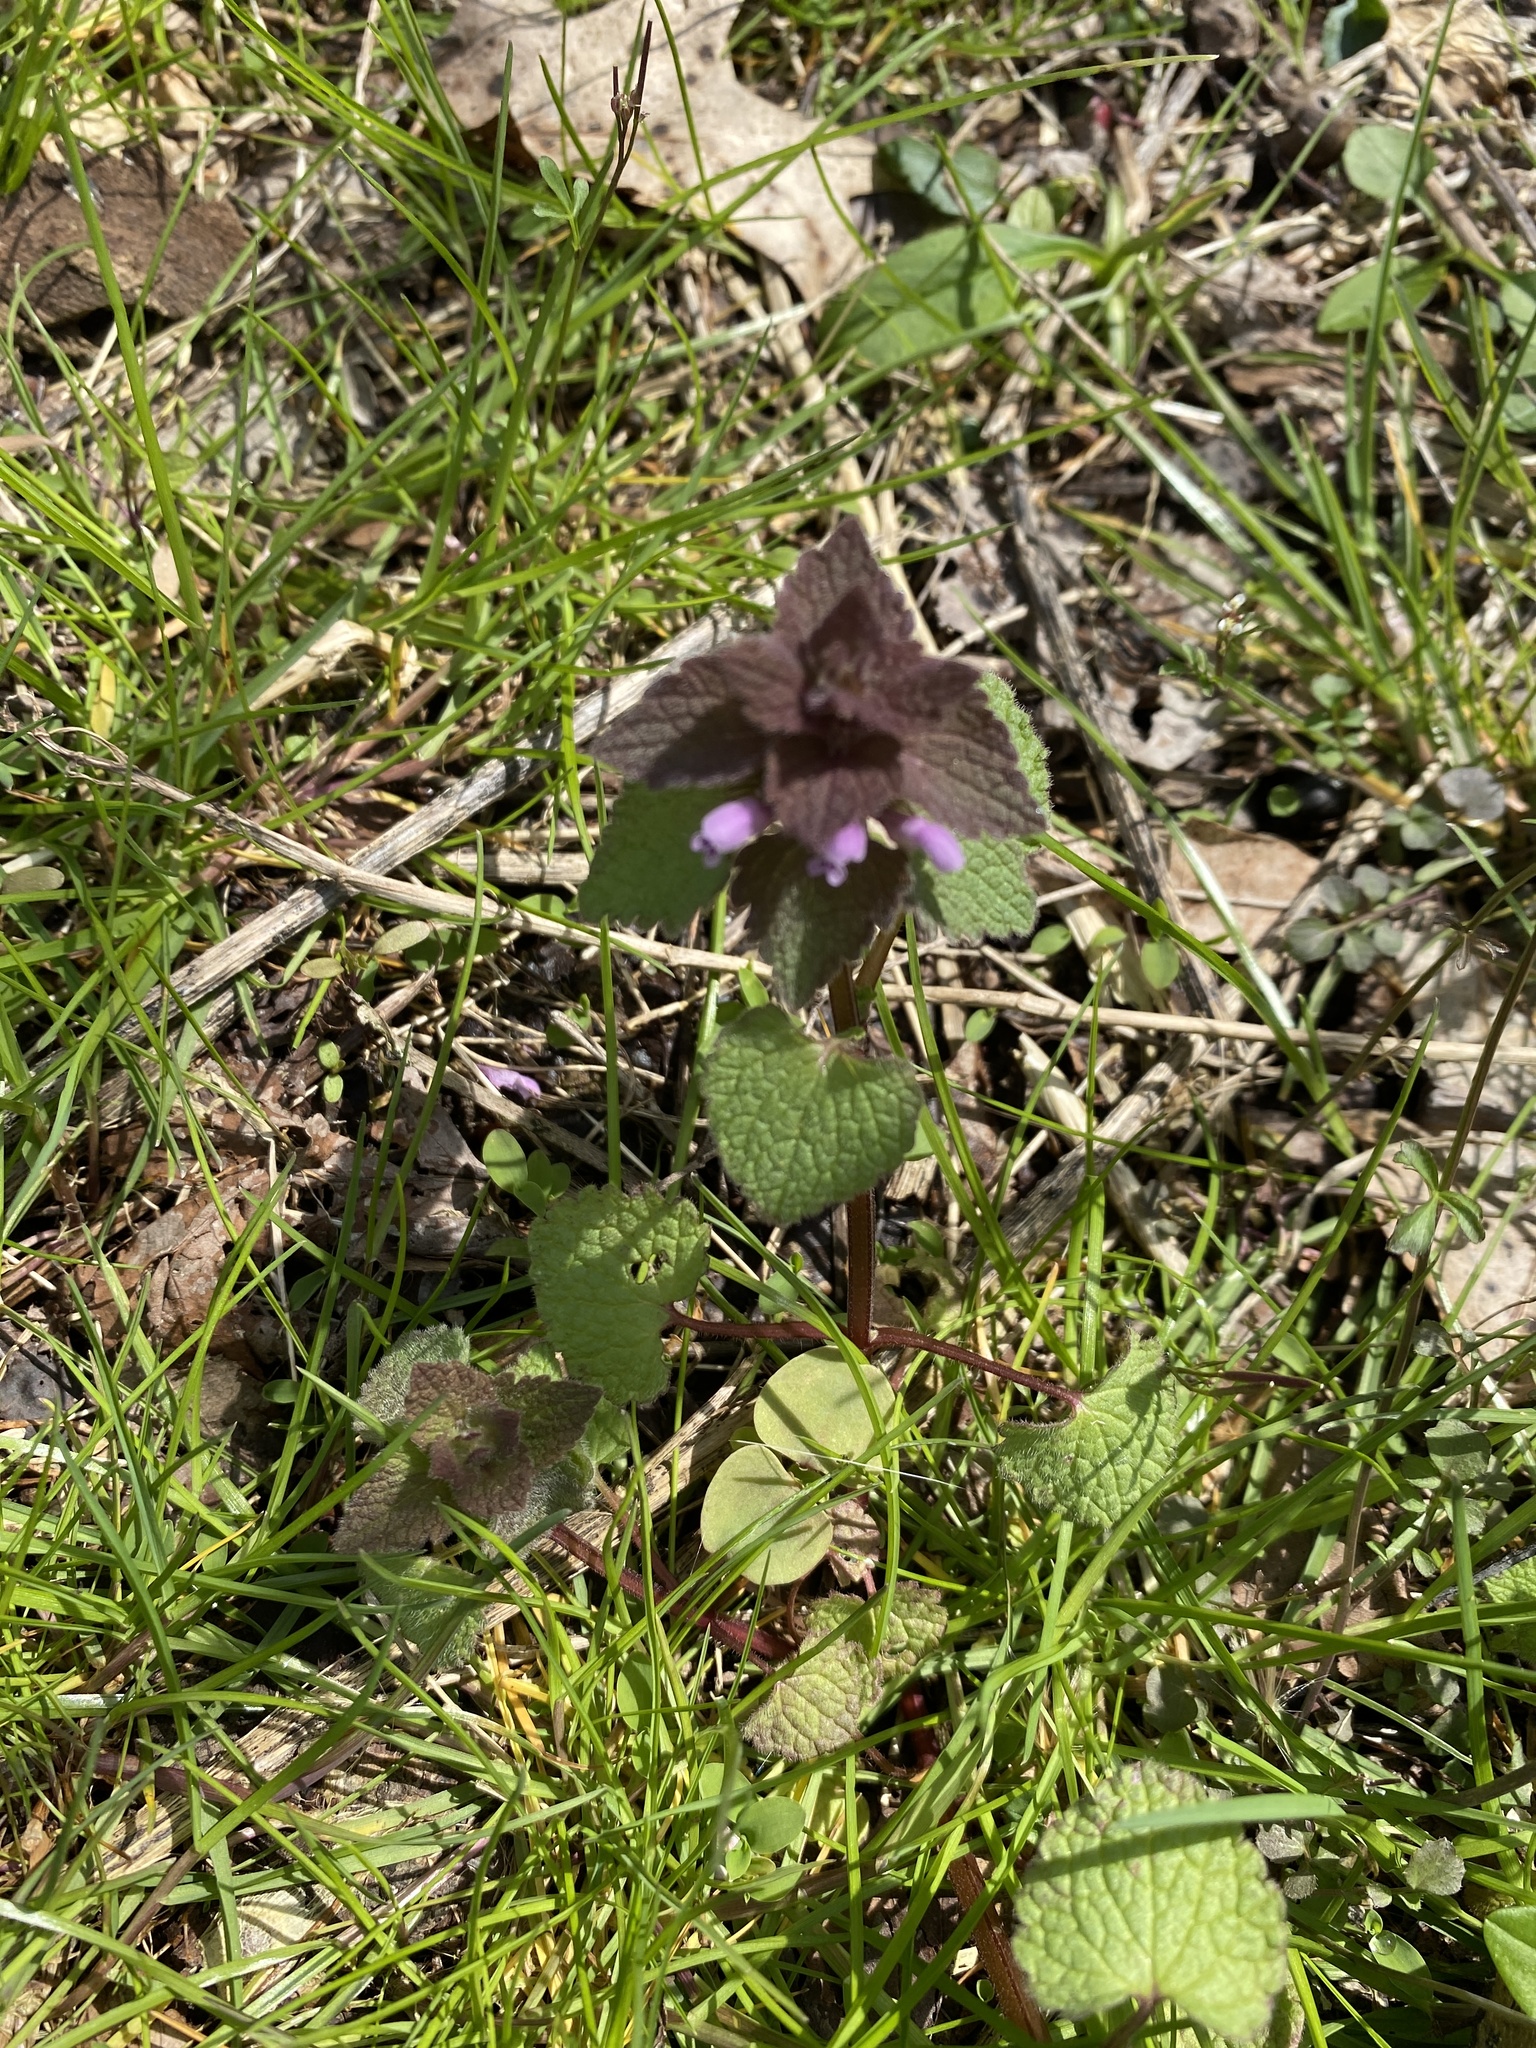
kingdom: Plantae
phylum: Tracheophyta
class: Magnoliopsida
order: Lamiales
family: Lamiaceae
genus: Lamium
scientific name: Lamium purpureum
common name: Red dead-nettle
